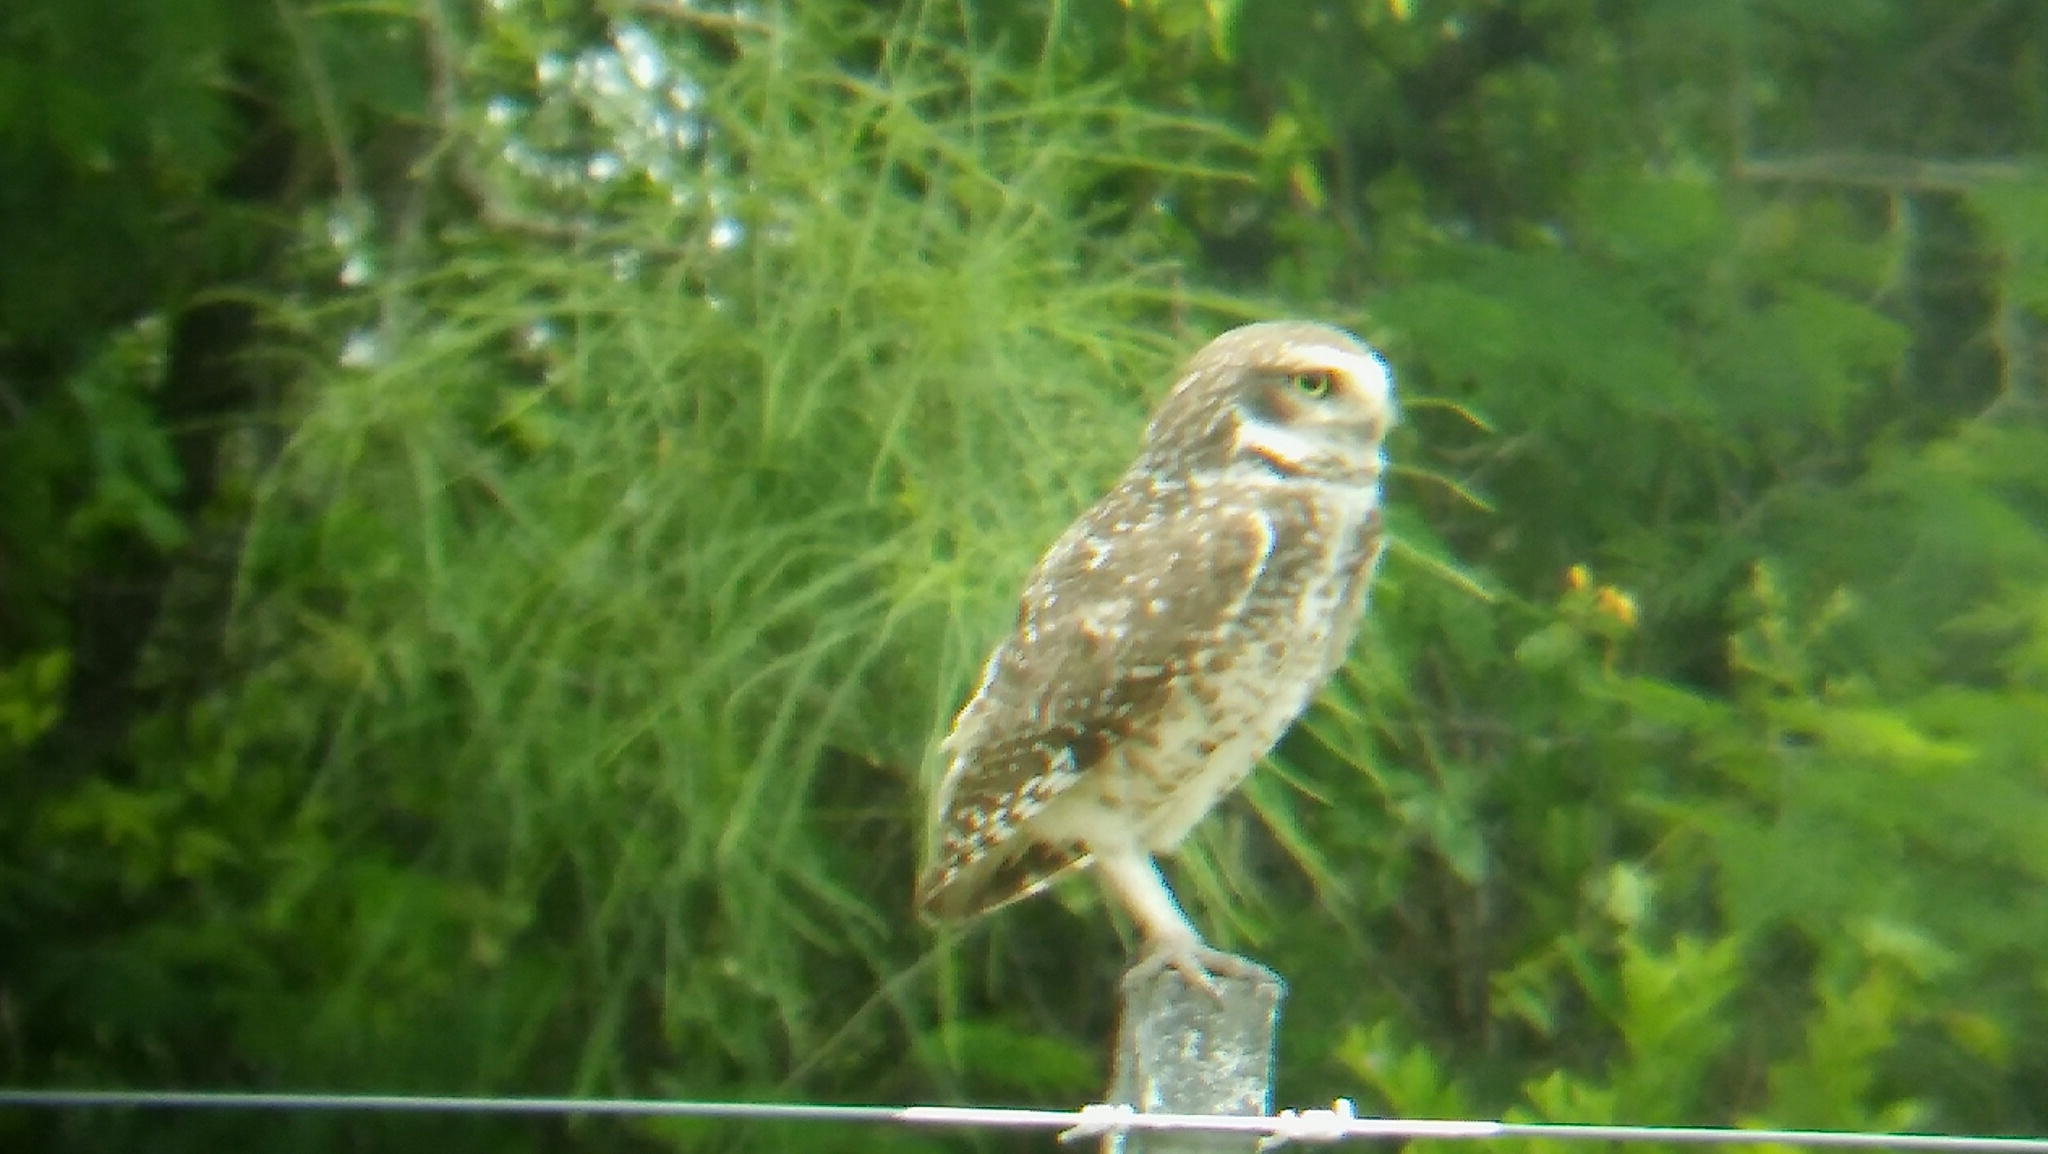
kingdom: Animalia
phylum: Chordata
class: Aves
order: Strigiformes
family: Strigidae
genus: Athene
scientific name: Athene cunicularia
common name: Burrowing owl
